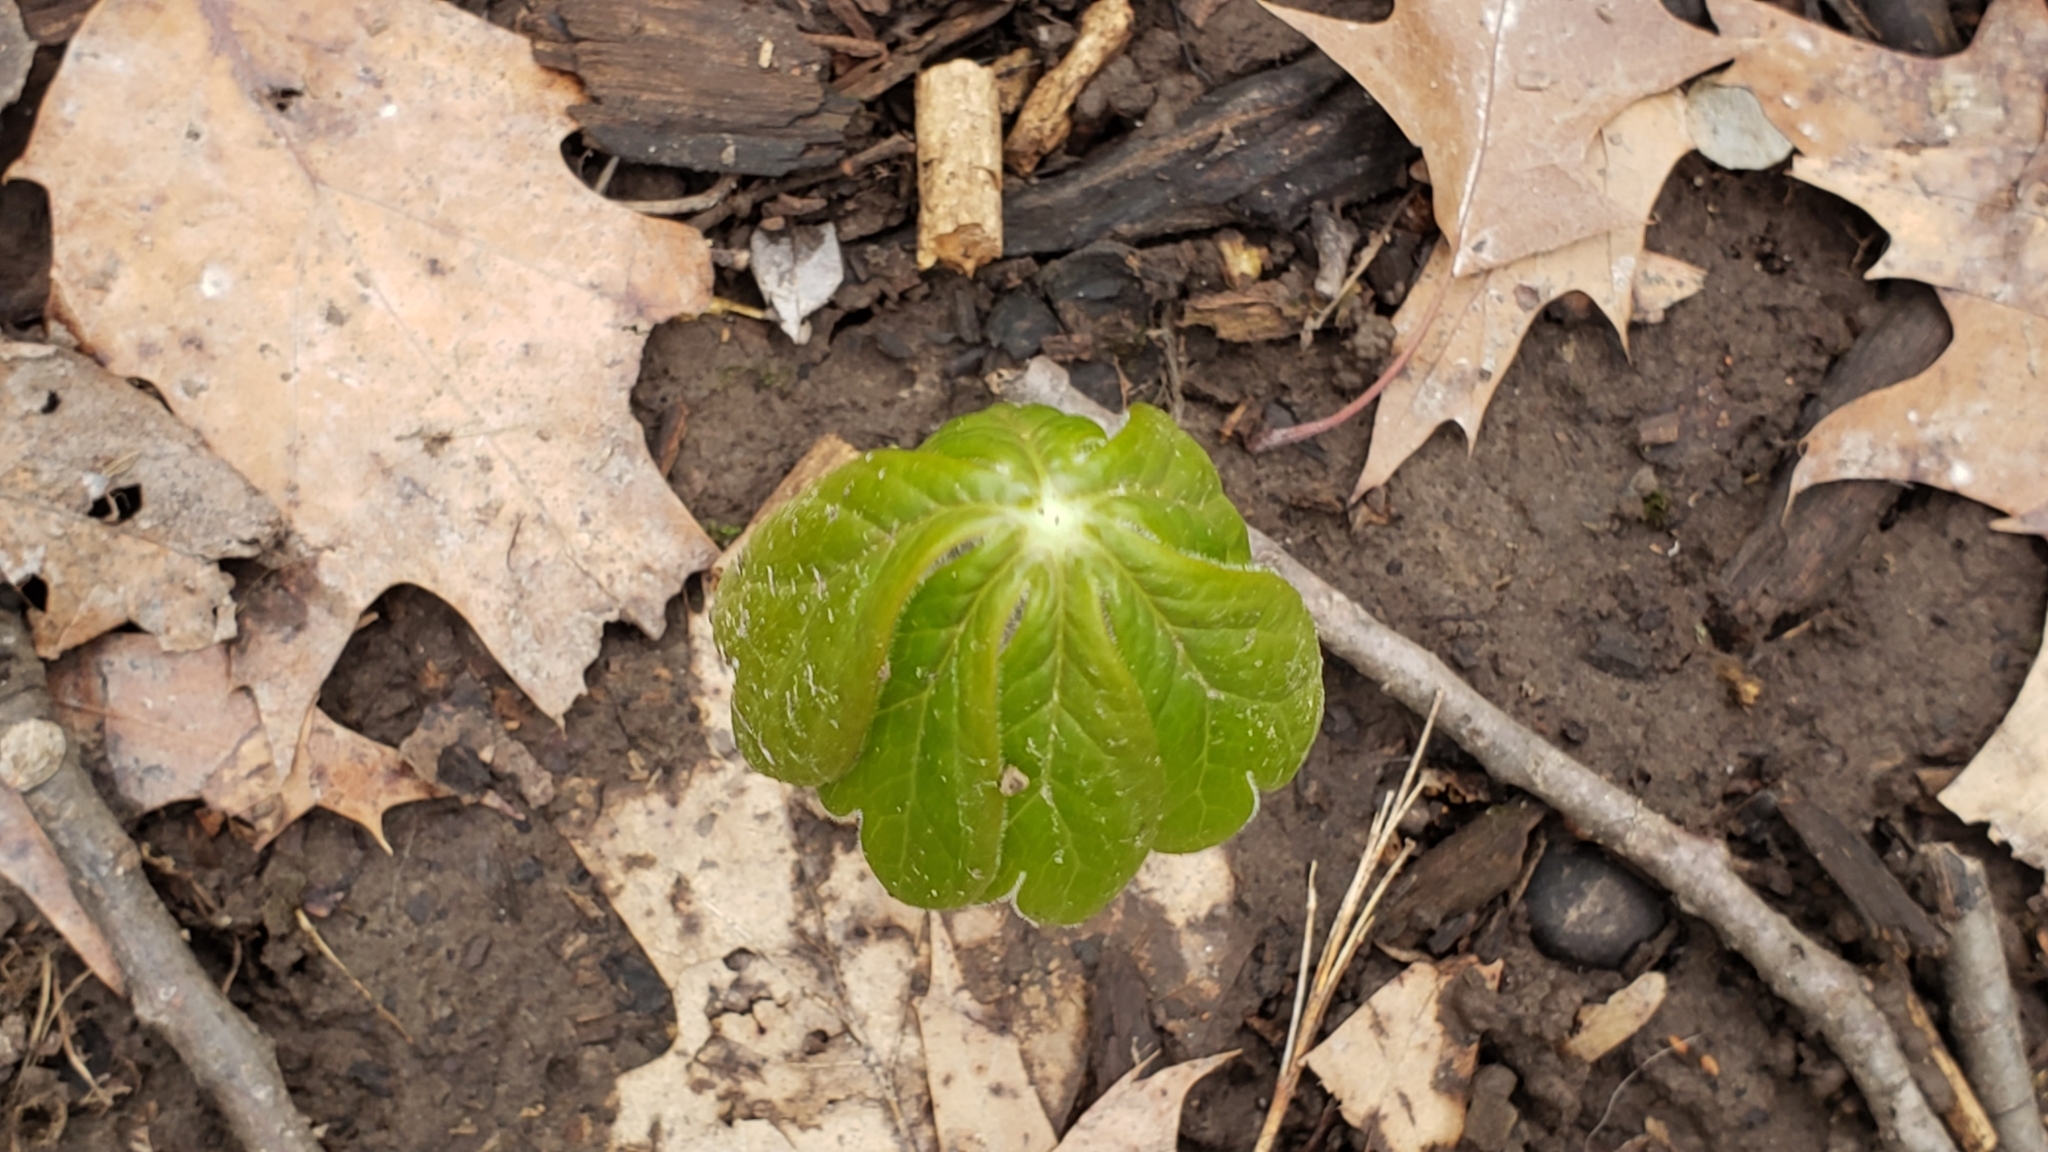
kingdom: Plantae
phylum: Tracheophyta
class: Magnoliopsida
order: Ranunculales
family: Berberidaceae
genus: Podophyllum
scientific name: Podophyllum peltatum
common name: Wild mandrake
